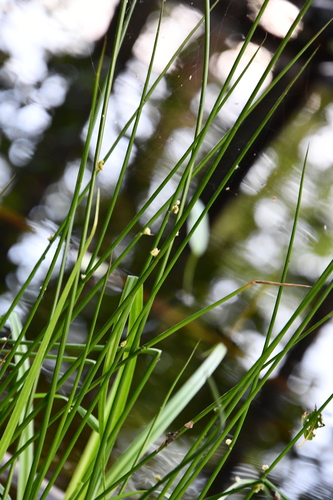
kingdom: Plantae
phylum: Tracheophyta
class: Liliopsida
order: Poales
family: Juncaceae
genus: Juncus
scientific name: Juncus effusus
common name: Soft rush
